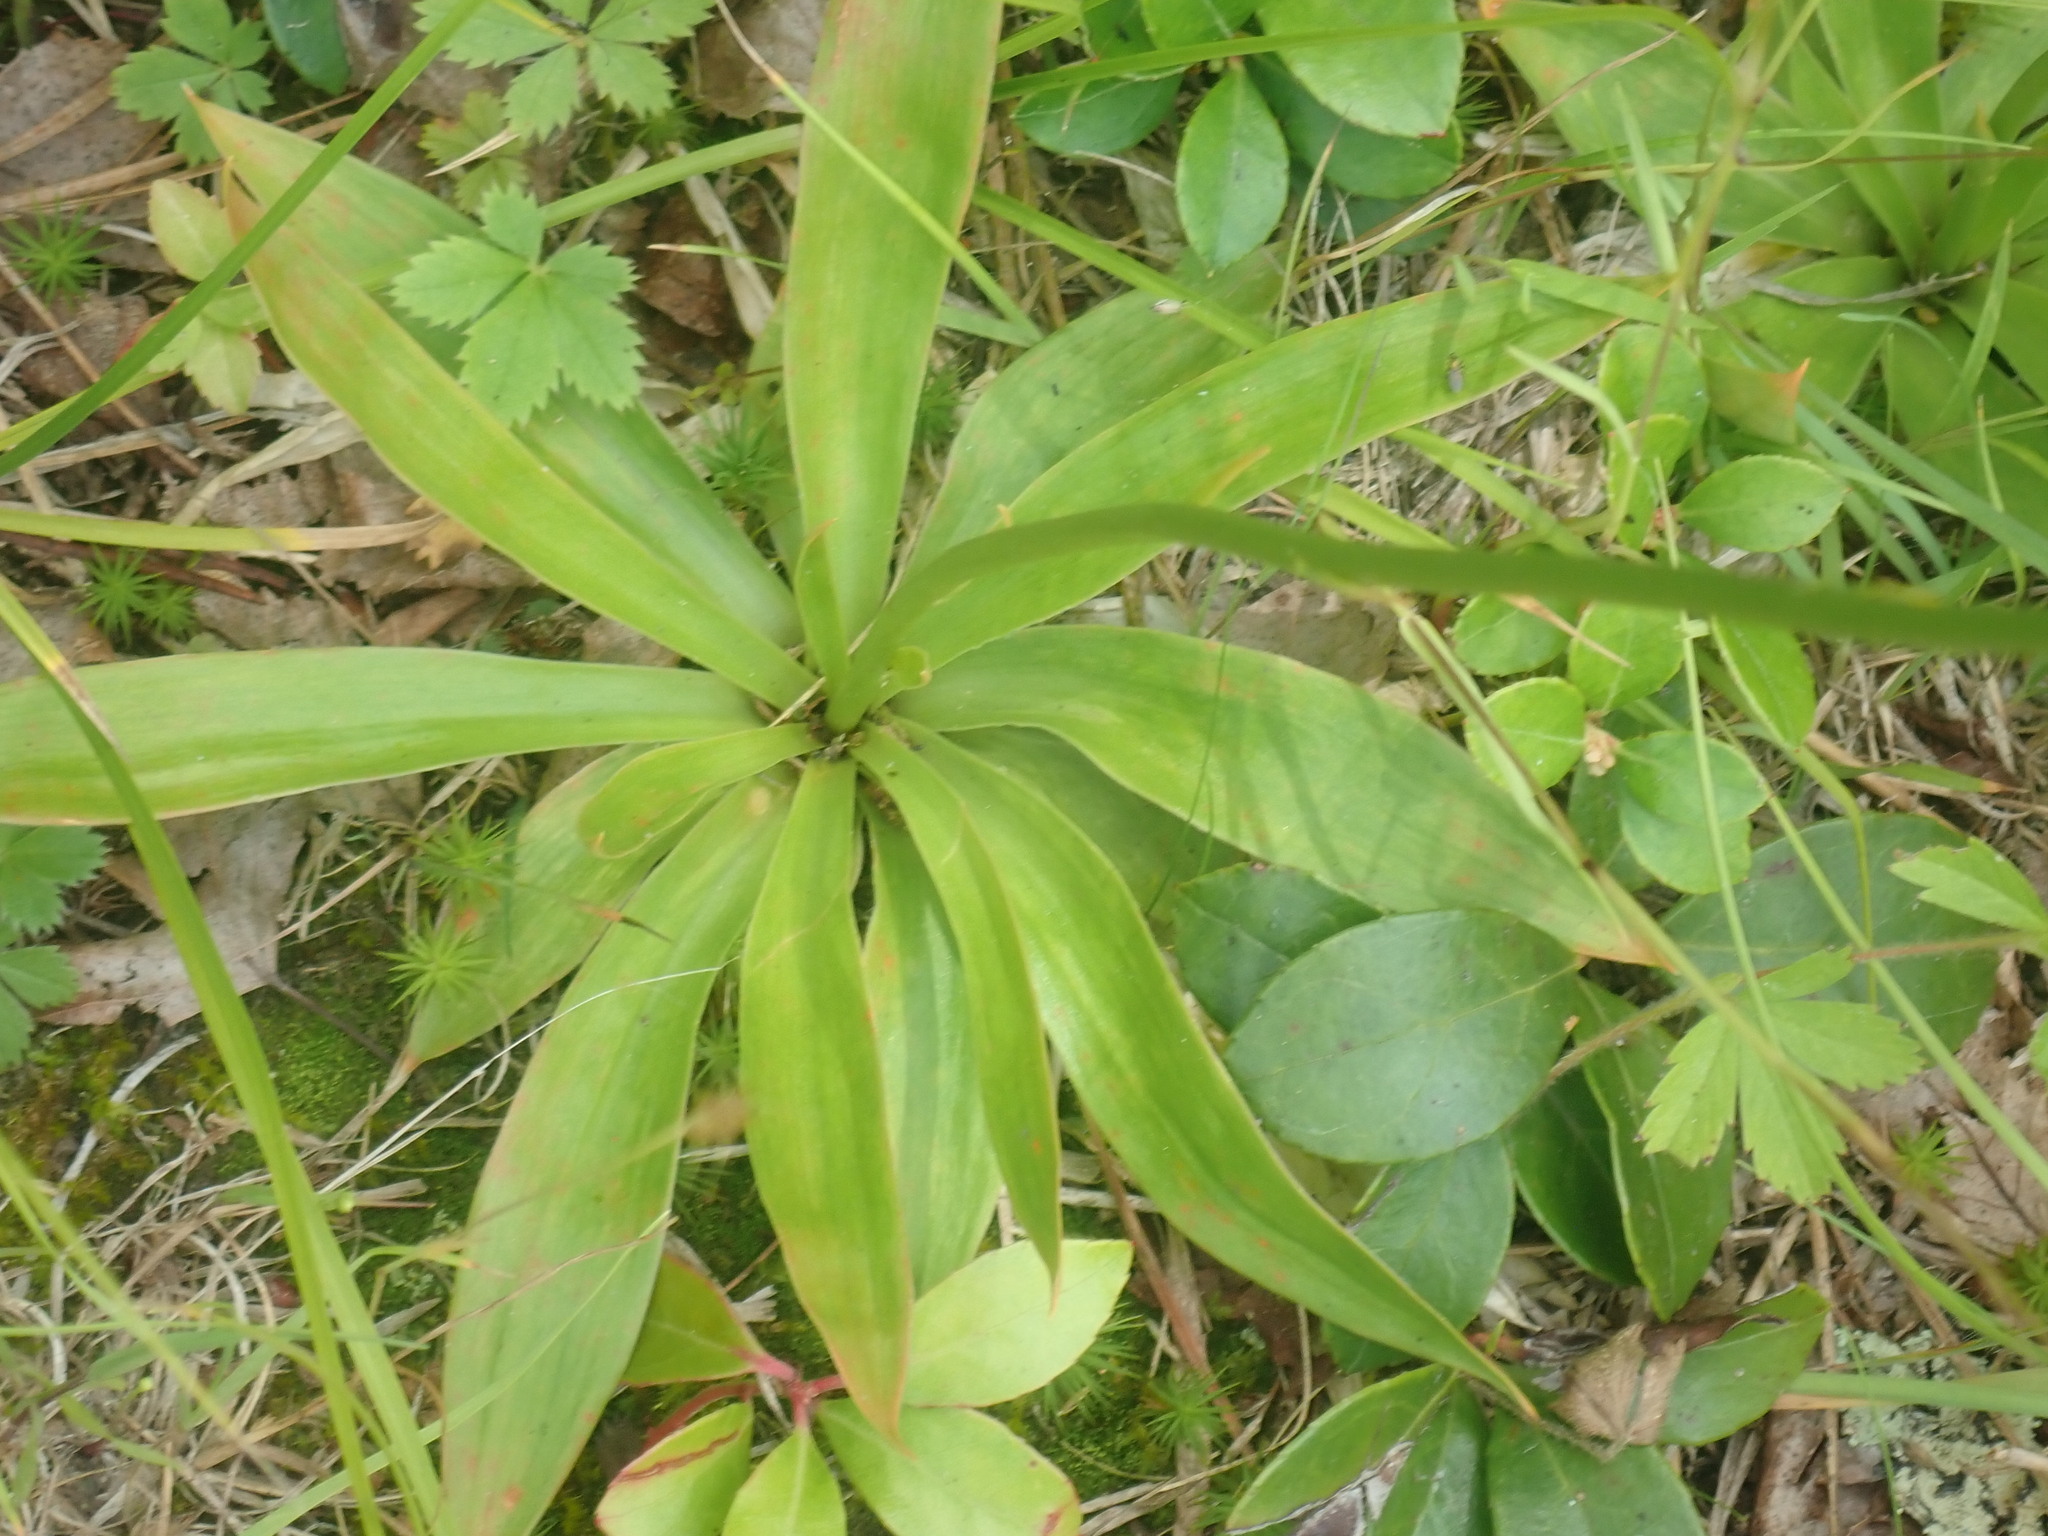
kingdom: Plantae
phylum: Tracheophyta
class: Liliopsida
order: Dioscoreales
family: Nartheciaceae
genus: Aletris
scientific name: Aletris farinosa
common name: Colicroot
